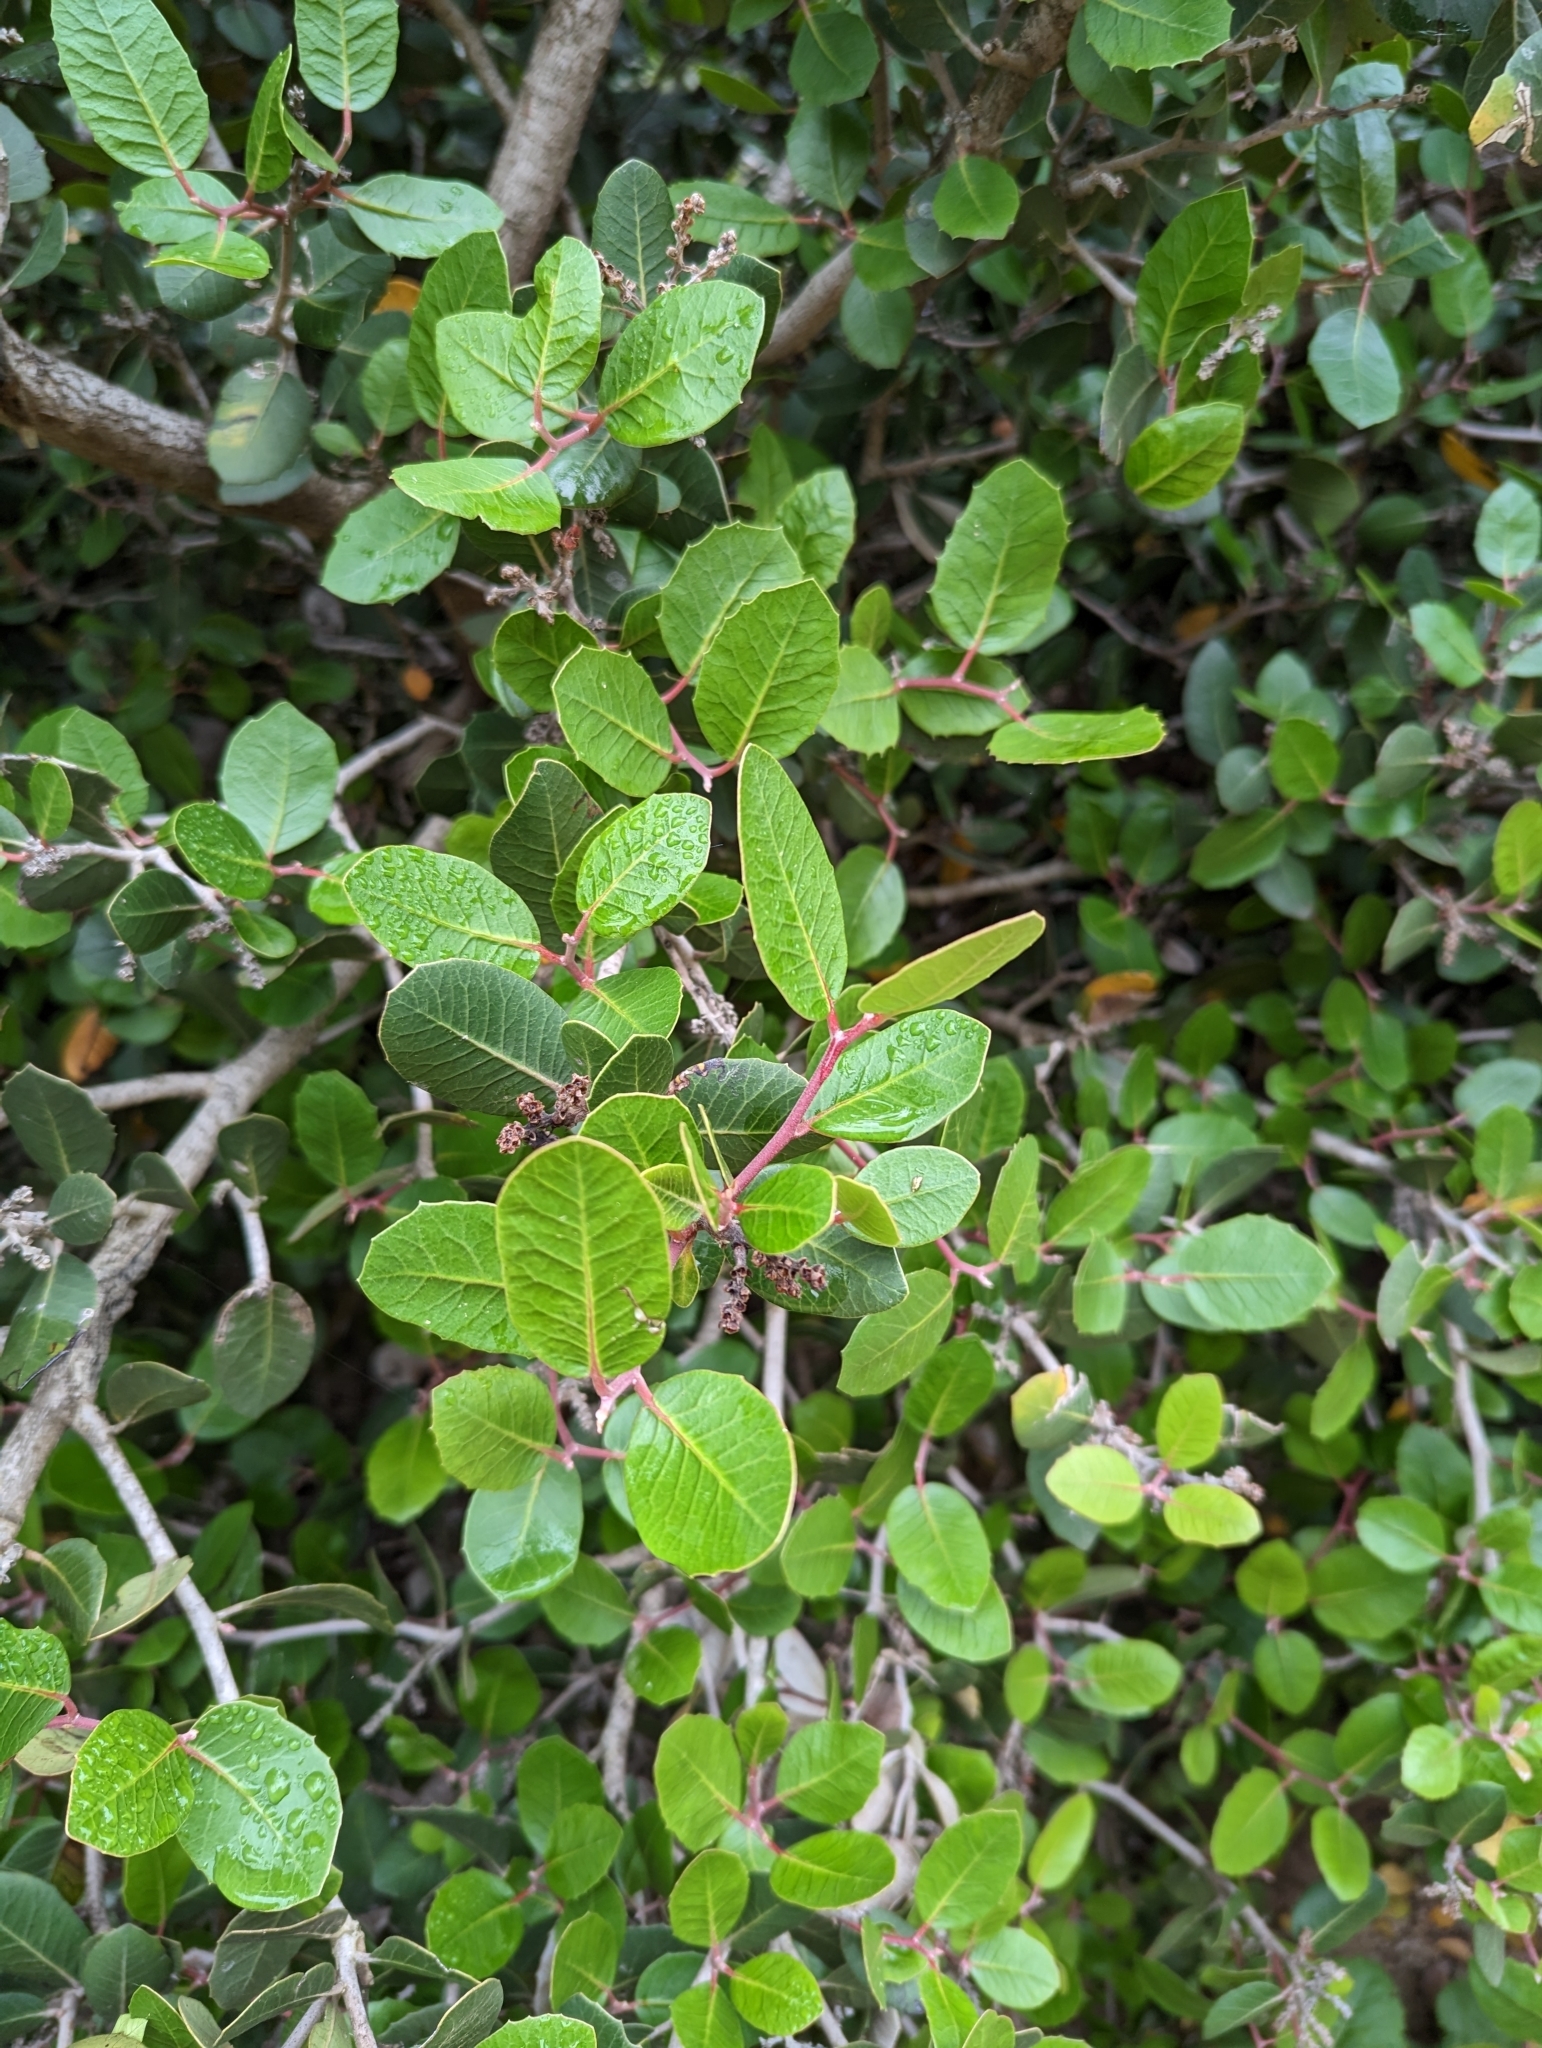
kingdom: Plantae
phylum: Tracheophyta
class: Magnoliopsida
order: Sapindales
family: Anacardiaceae
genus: Rhus
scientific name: Rhus integrifolia
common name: Lemonade sumac
